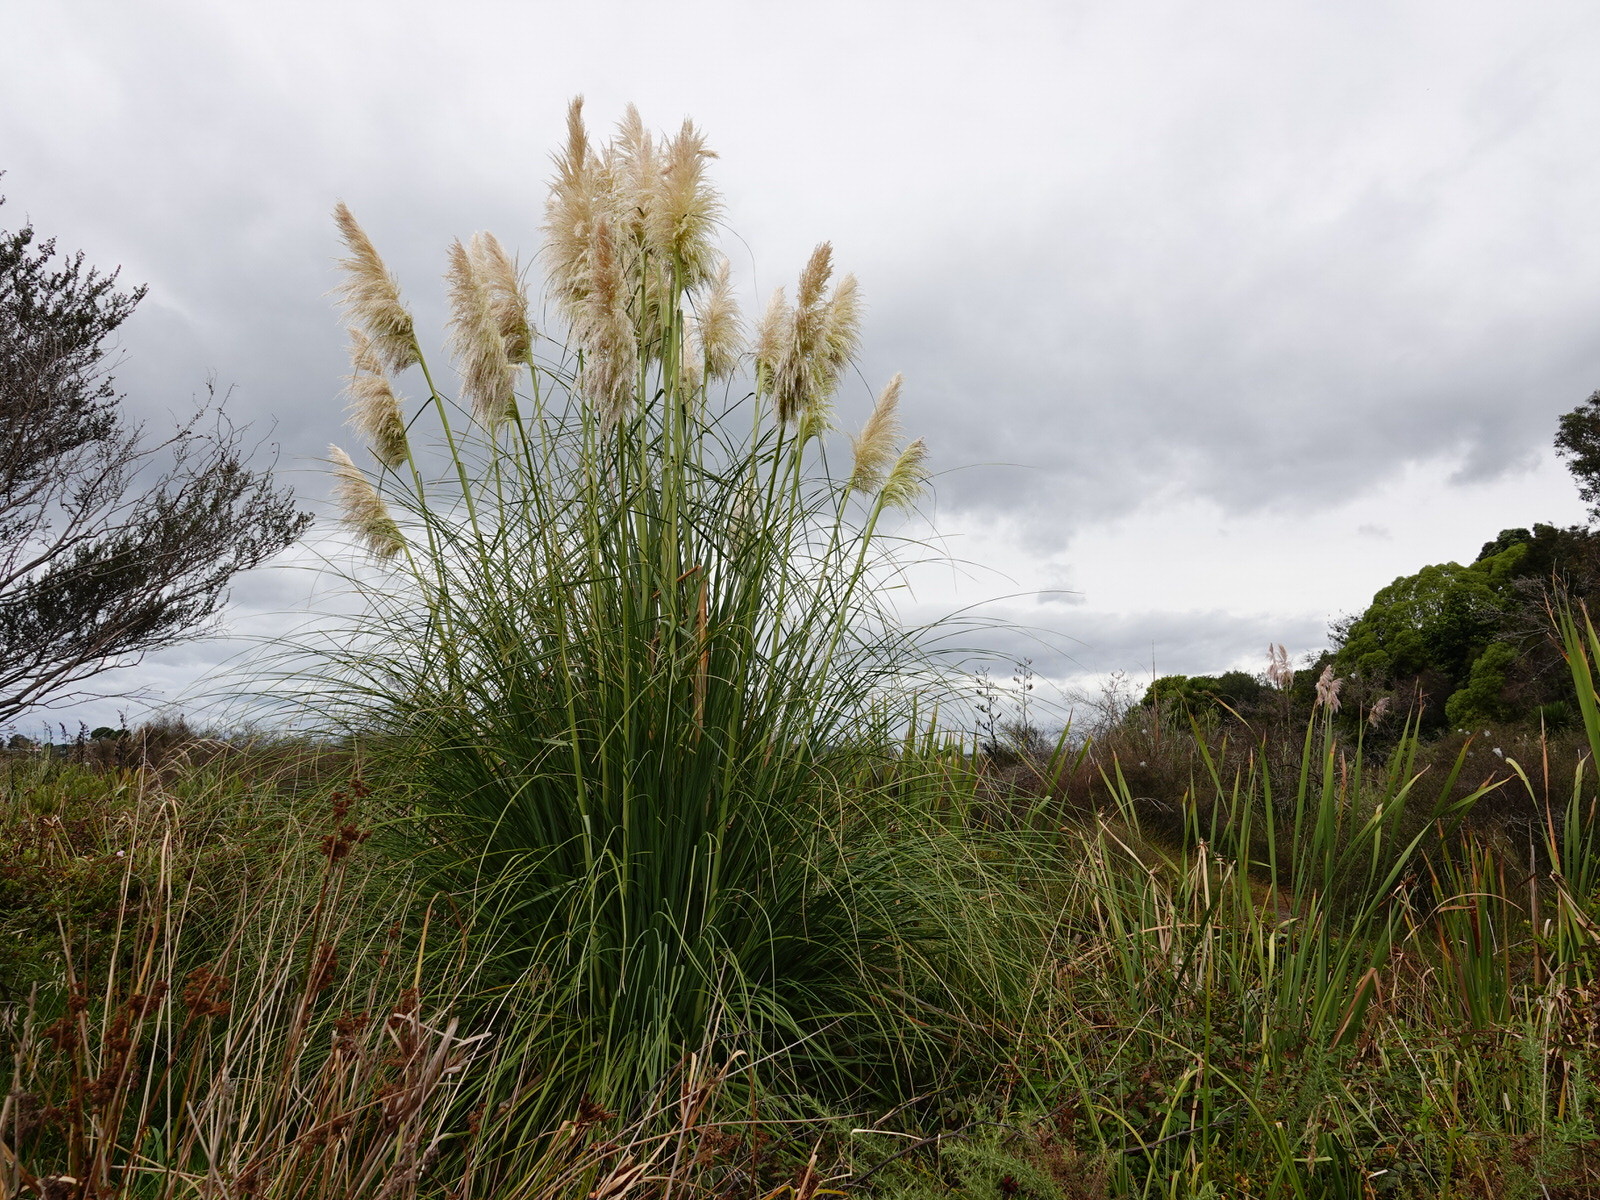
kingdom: Plantae
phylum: Tracheophyta
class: Liliopsida
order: Poales
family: Poaceae
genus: Cortaderia
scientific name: Cortaderia selloana
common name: Uruguayan pampas grass
